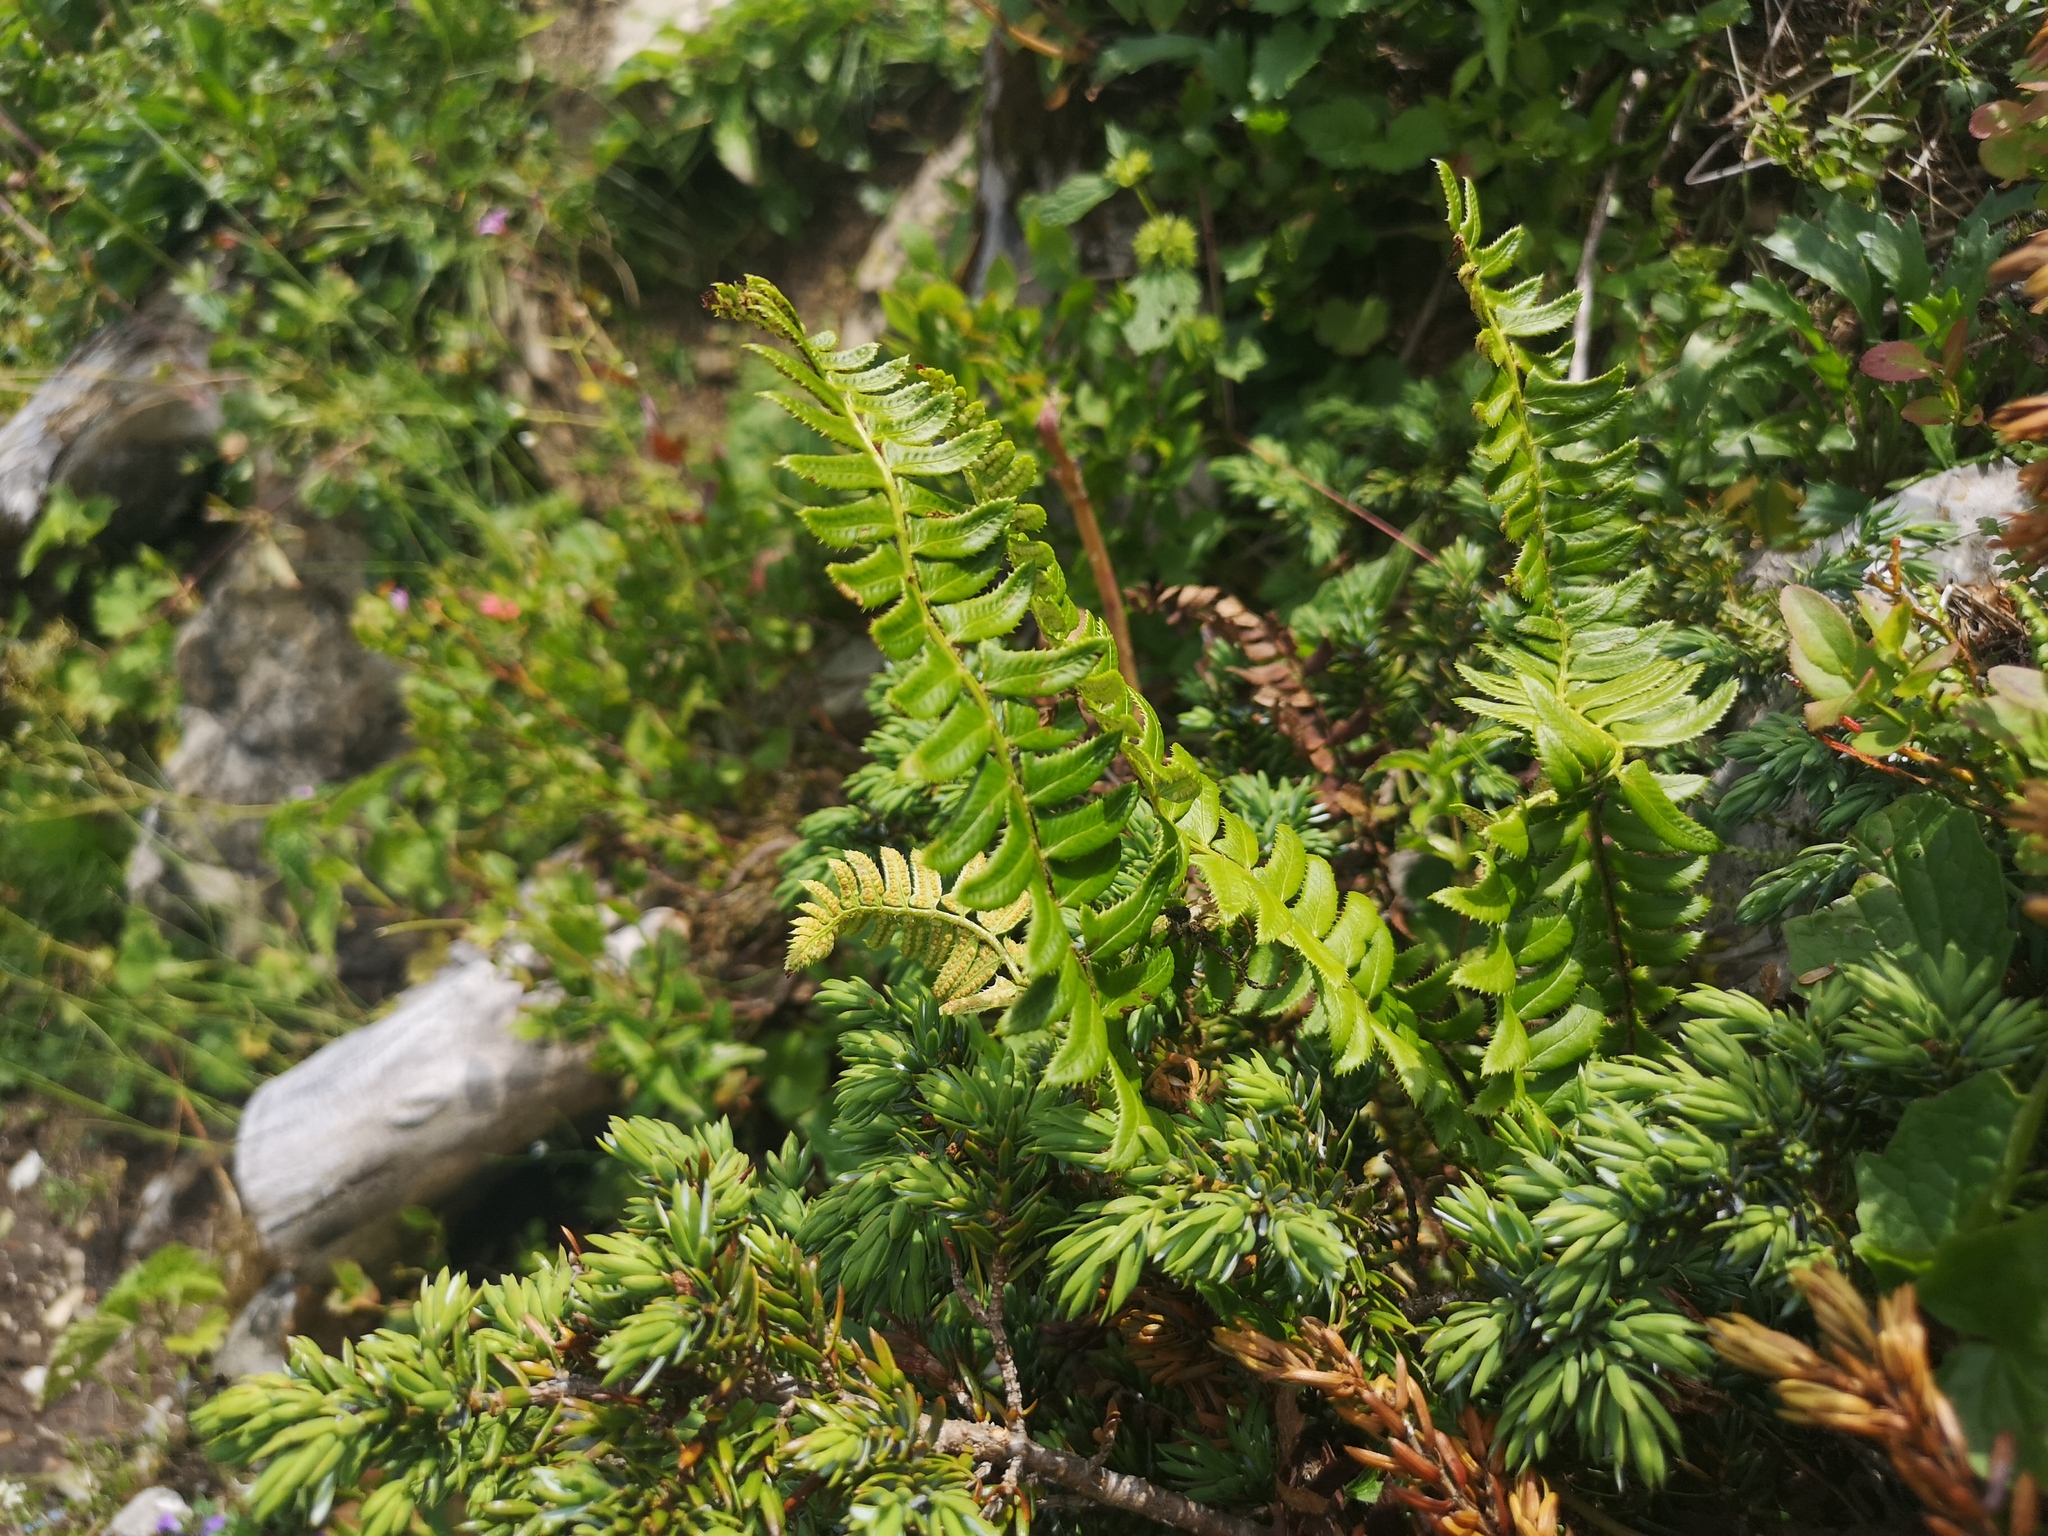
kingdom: Plantae
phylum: Tracheophyta
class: Polypodiopsida
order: Polypodiales
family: Dryopteridaceae
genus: Polystichum
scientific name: Polystichum lonchitis
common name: Holly fern
